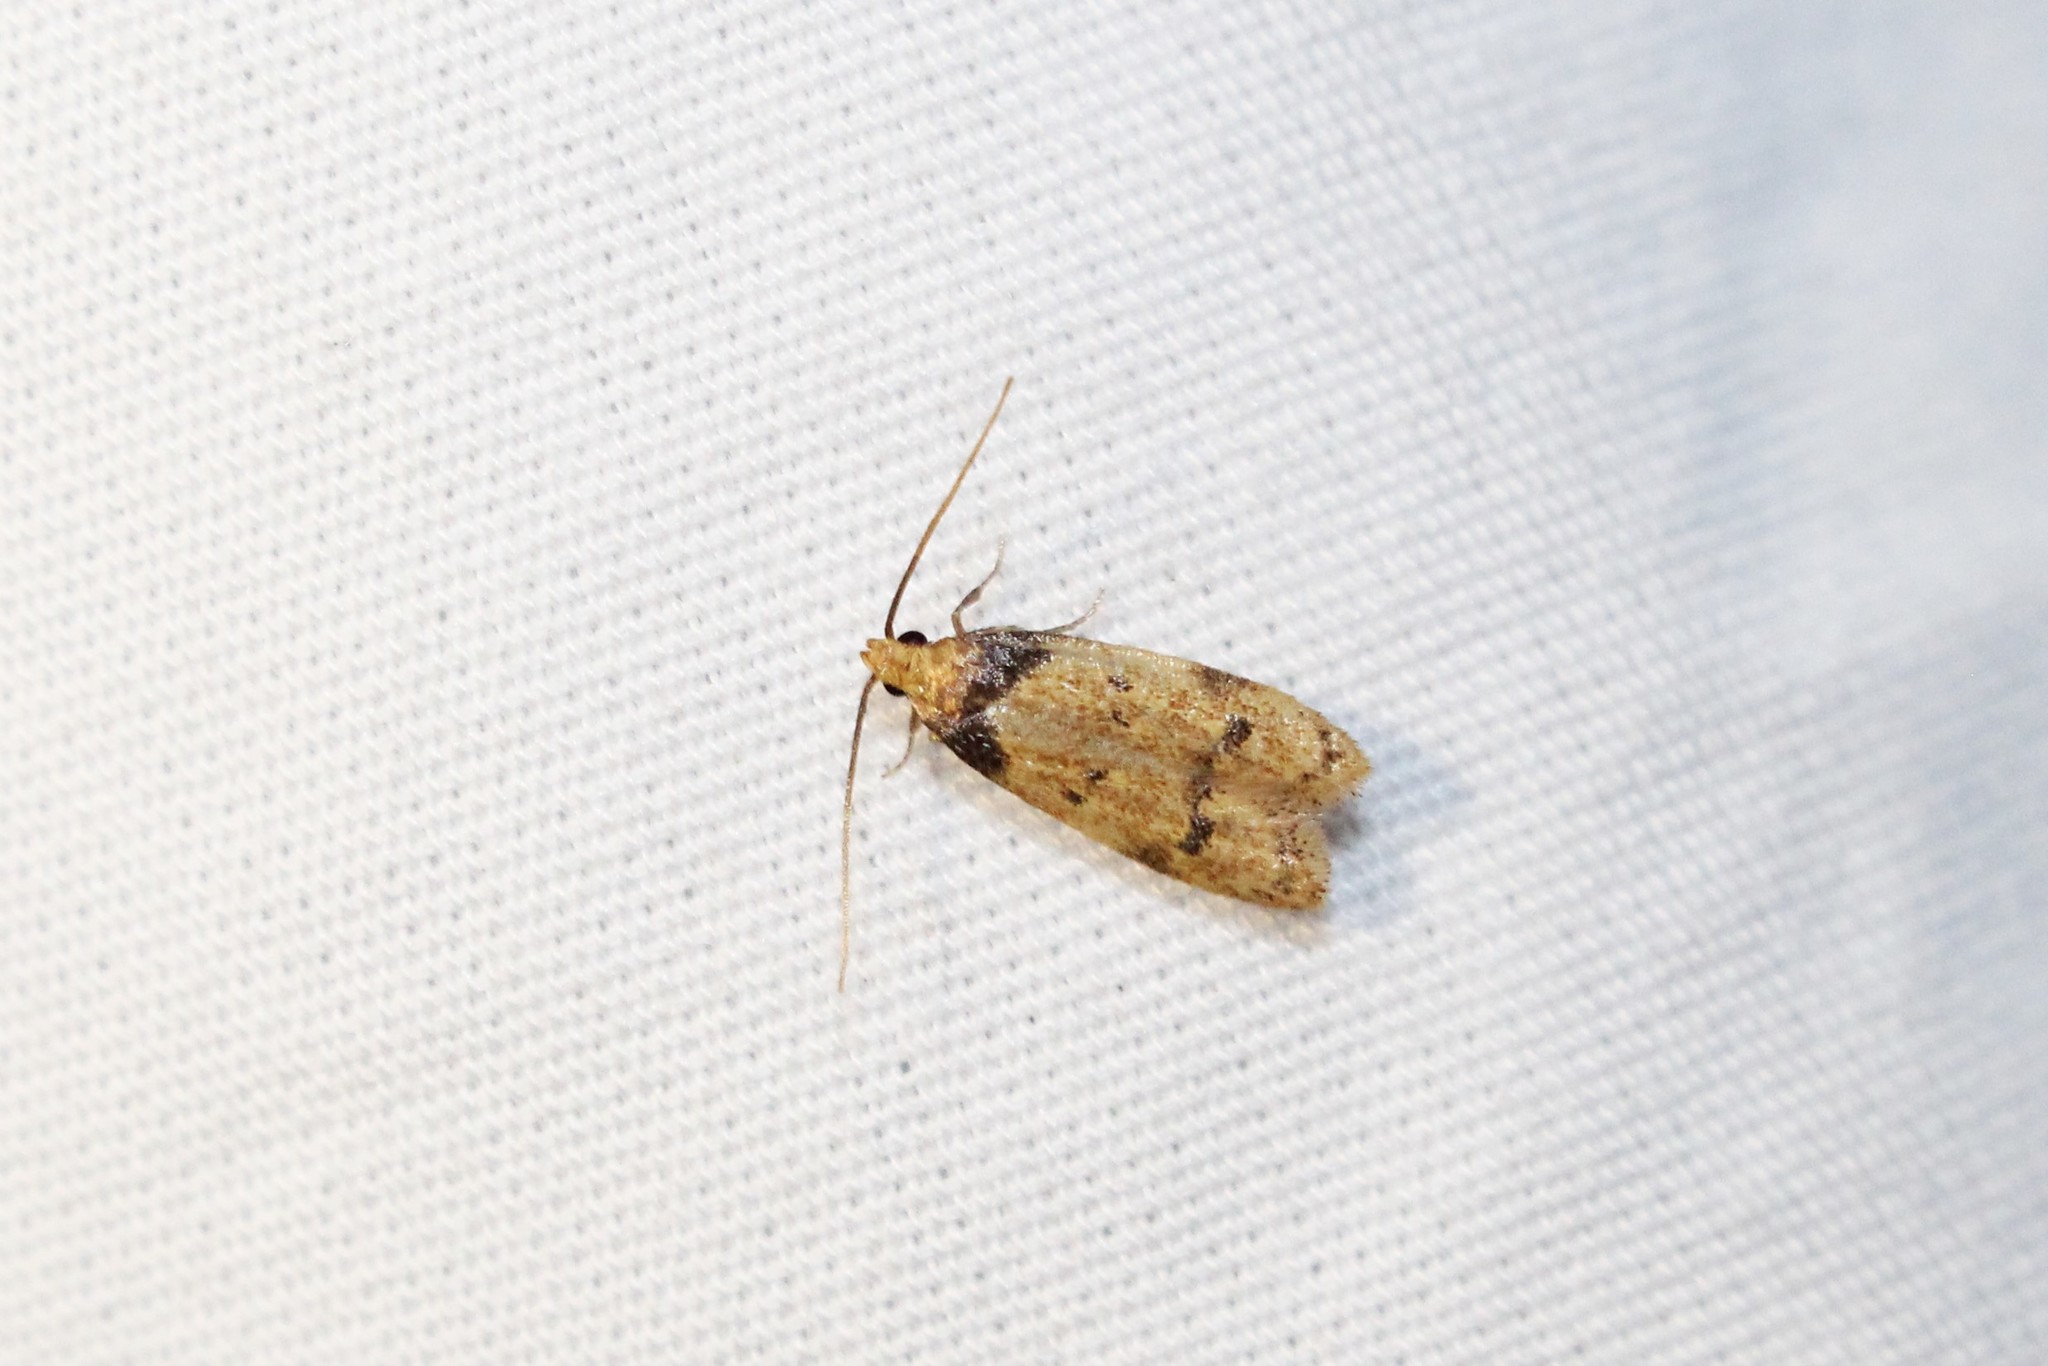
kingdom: Animalia
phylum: Arthropoda
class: Insecta
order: Lepidoptera
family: Autostichidae
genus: Gerdana
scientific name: Gerdana caritella
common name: Gerdana moth
